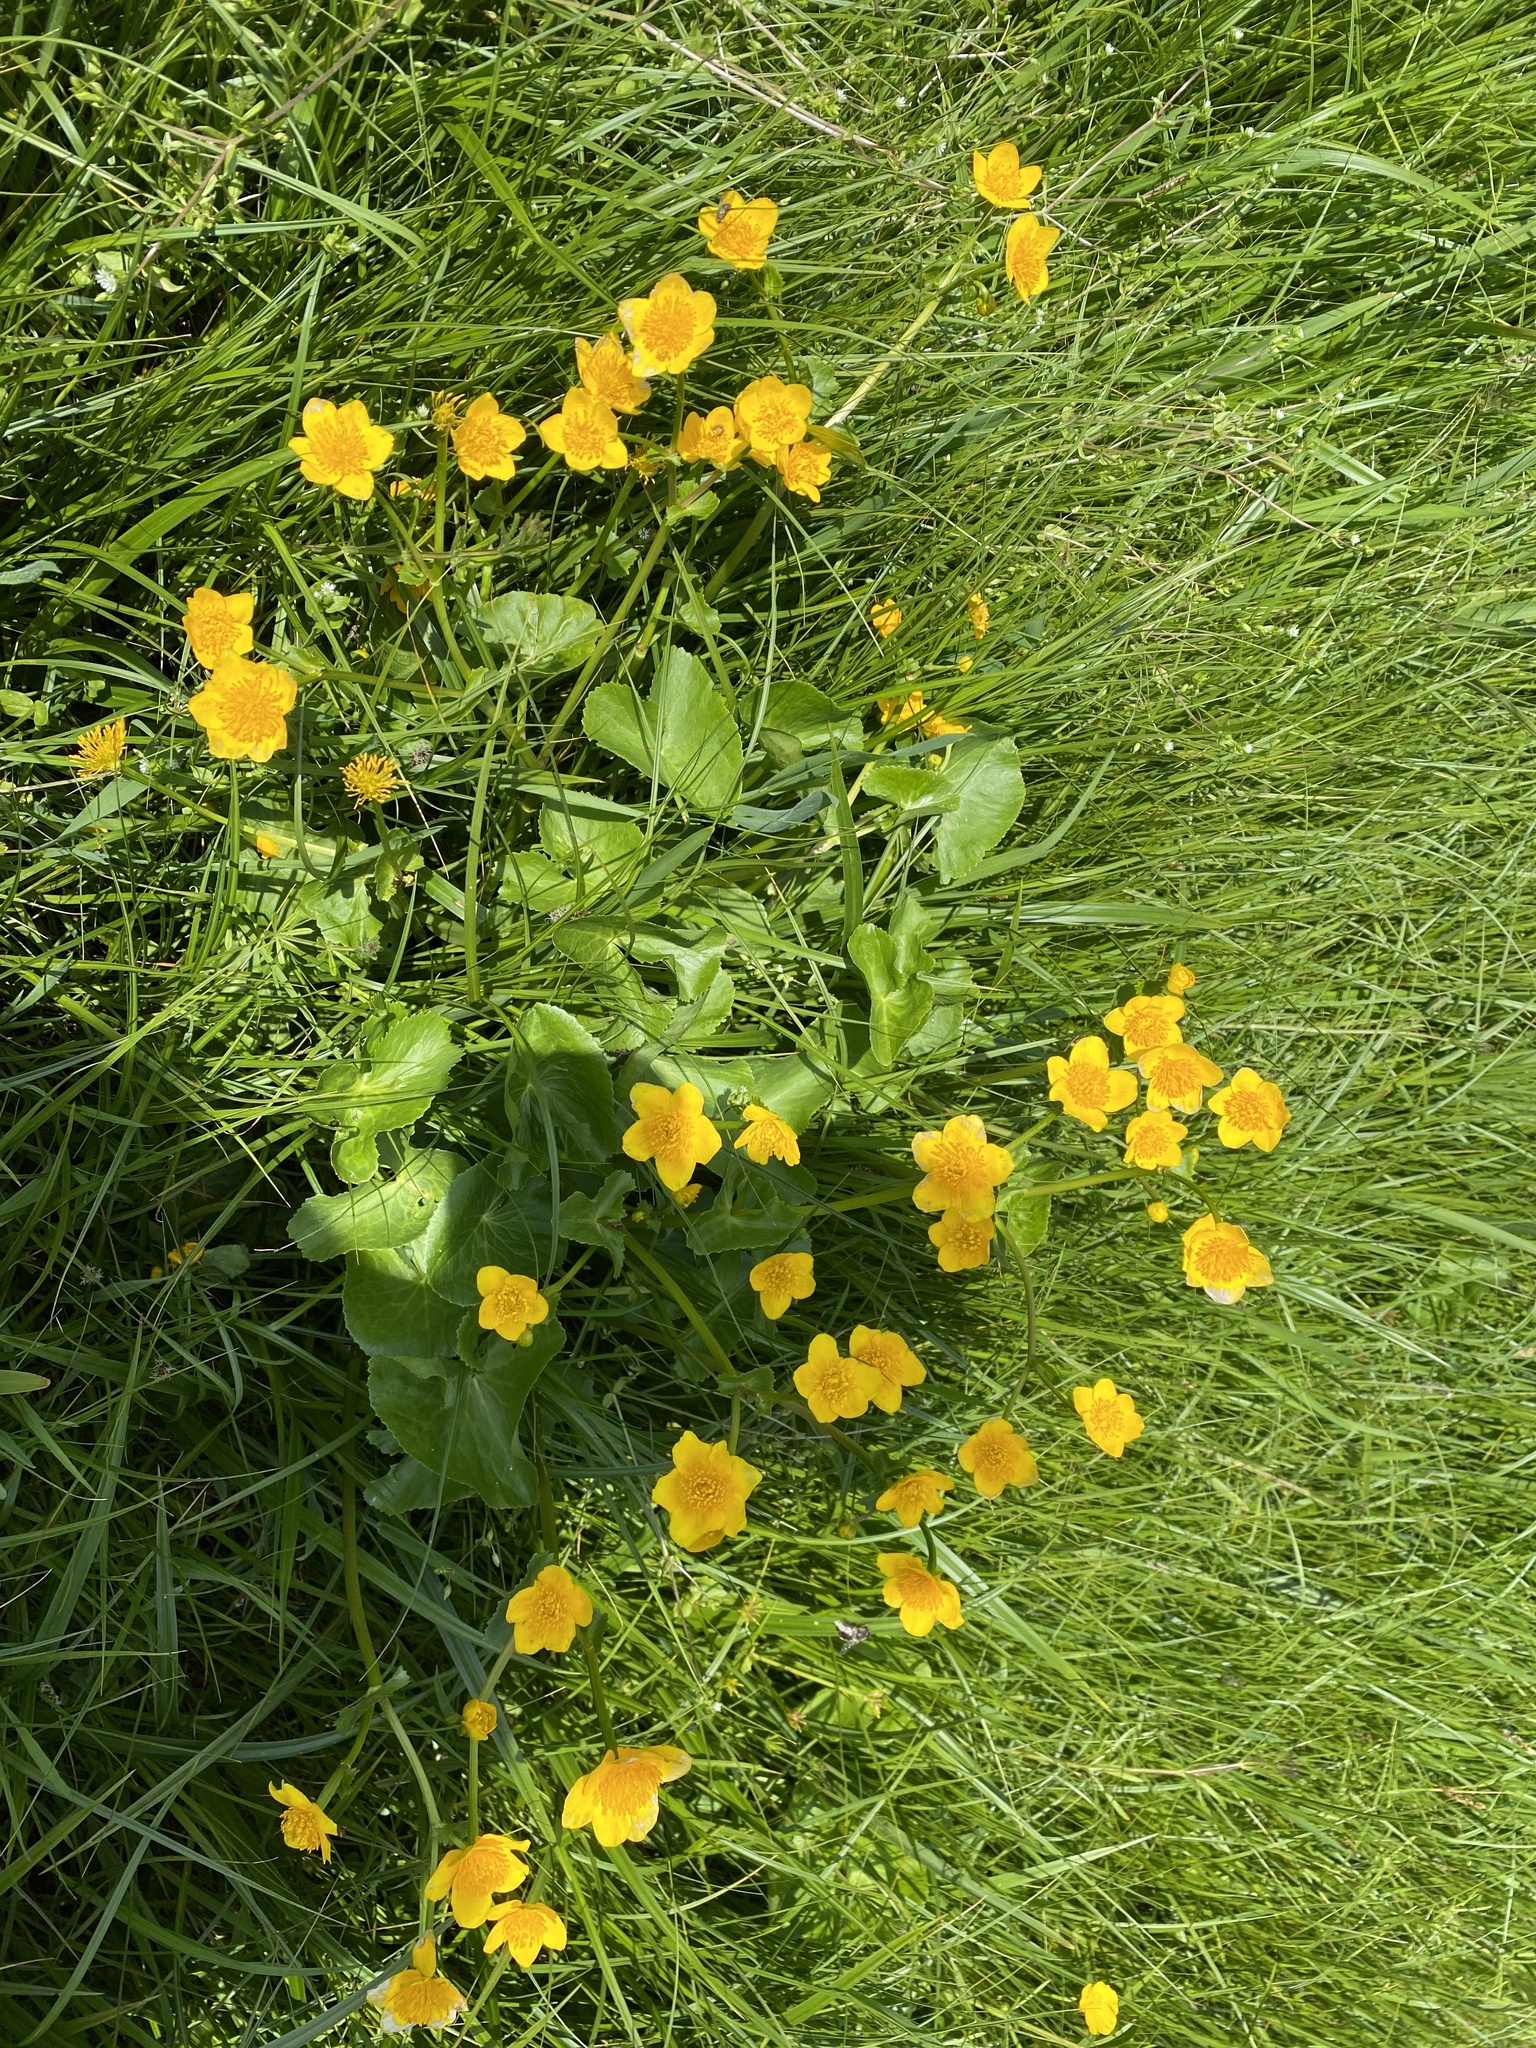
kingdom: Plantae
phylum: Tracheophyta
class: Magnoliopsida
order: Ranunculales
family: Ranunculaceae
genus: Caltha
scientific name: Caltha palustris
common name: Marsh marigold
